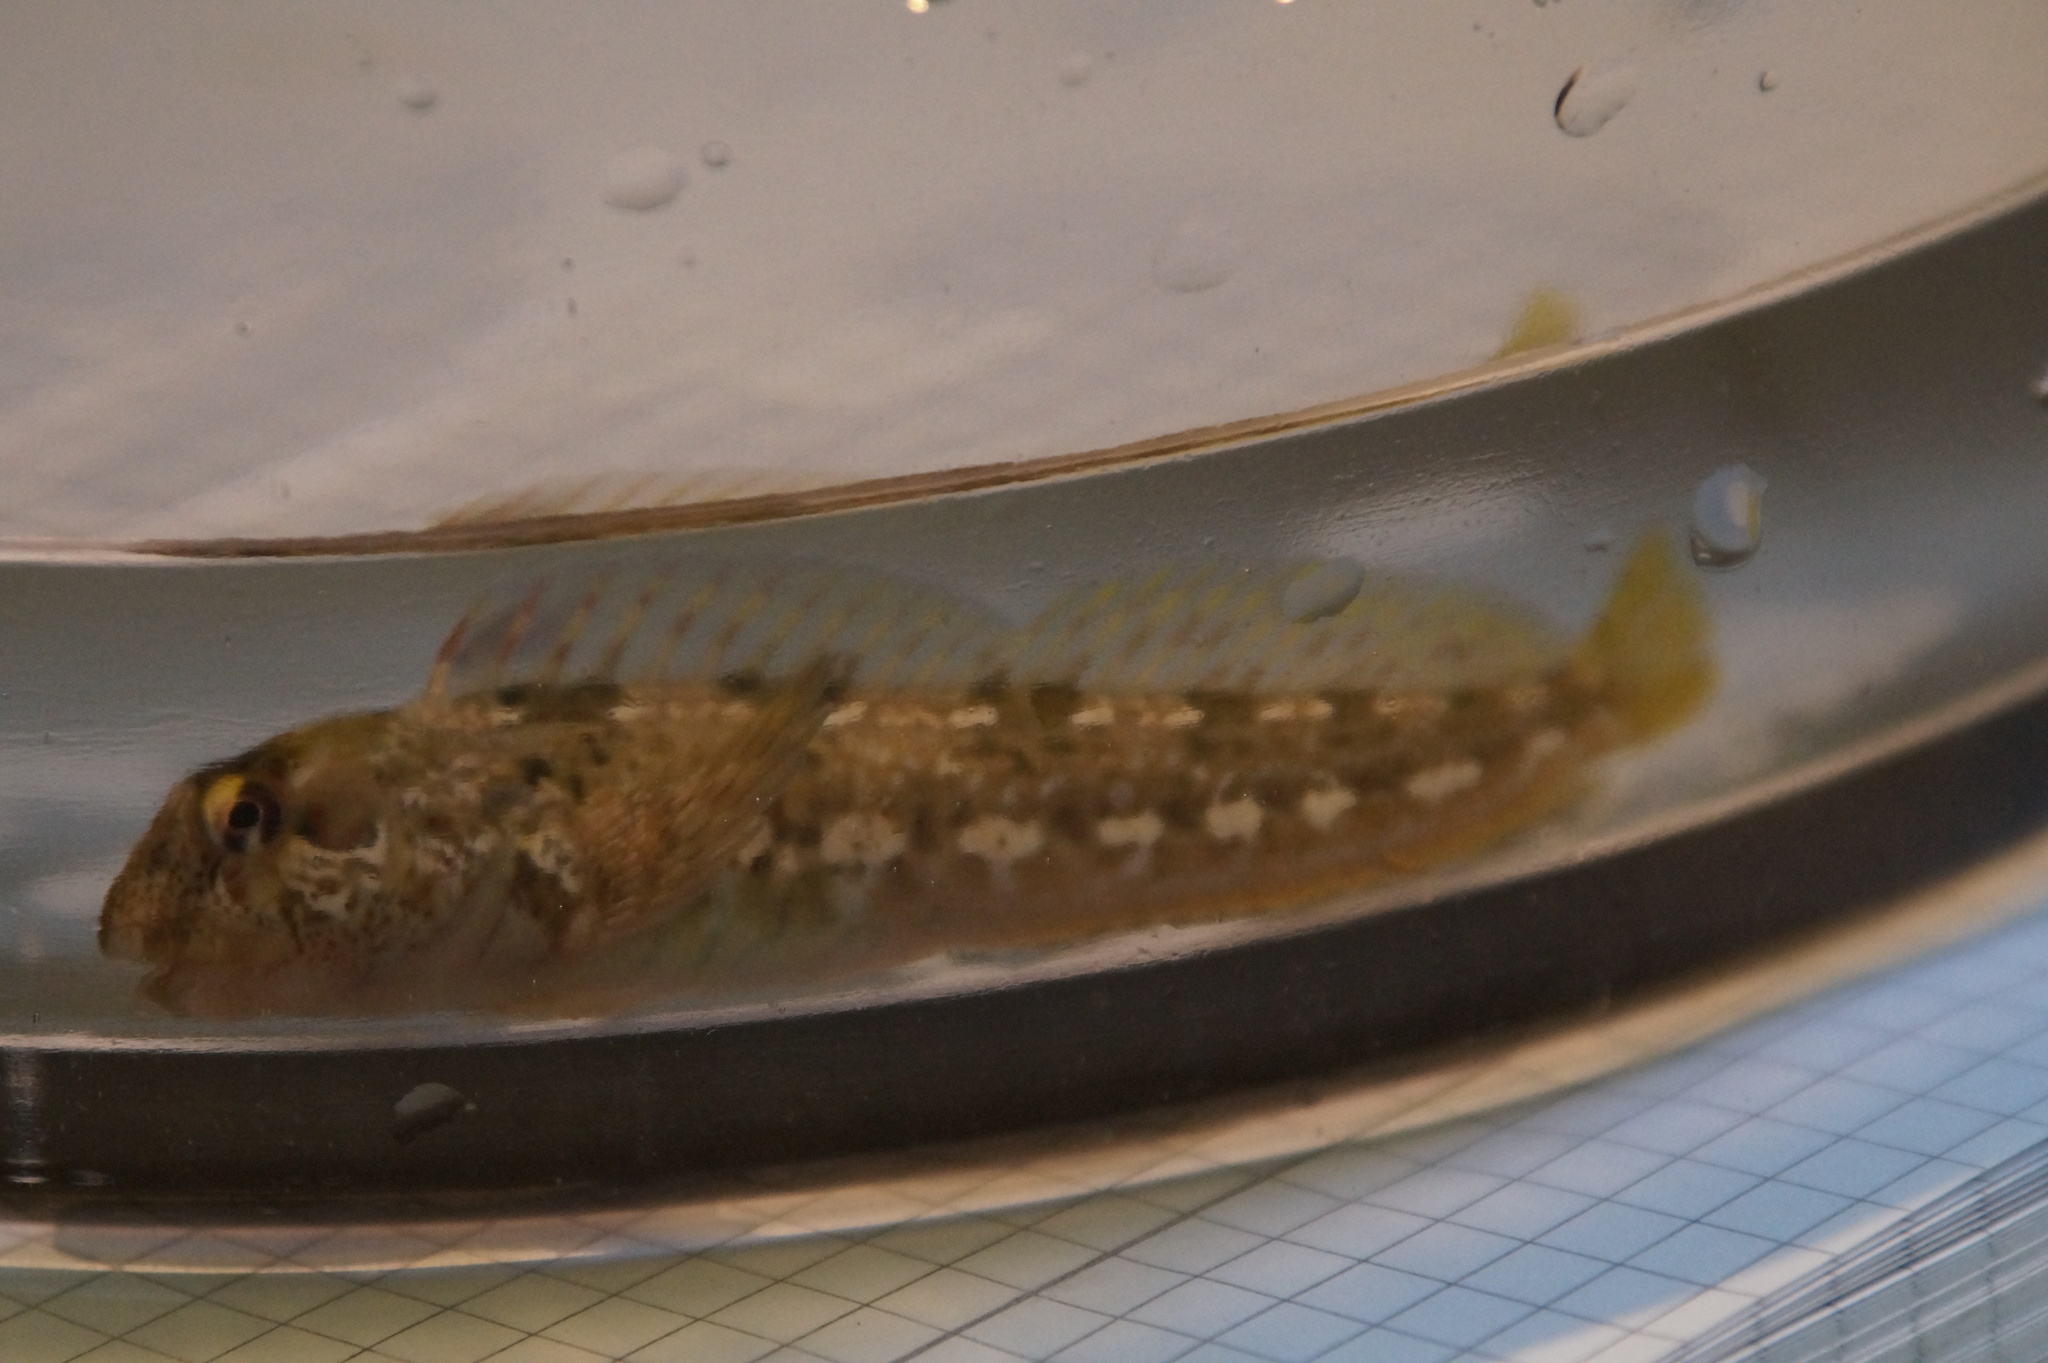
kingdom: Animalia
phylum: Chordata
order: Perciformes
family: Blenniidae
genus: Lipophrys
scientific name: Lipophrys pholis
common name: Shanny
